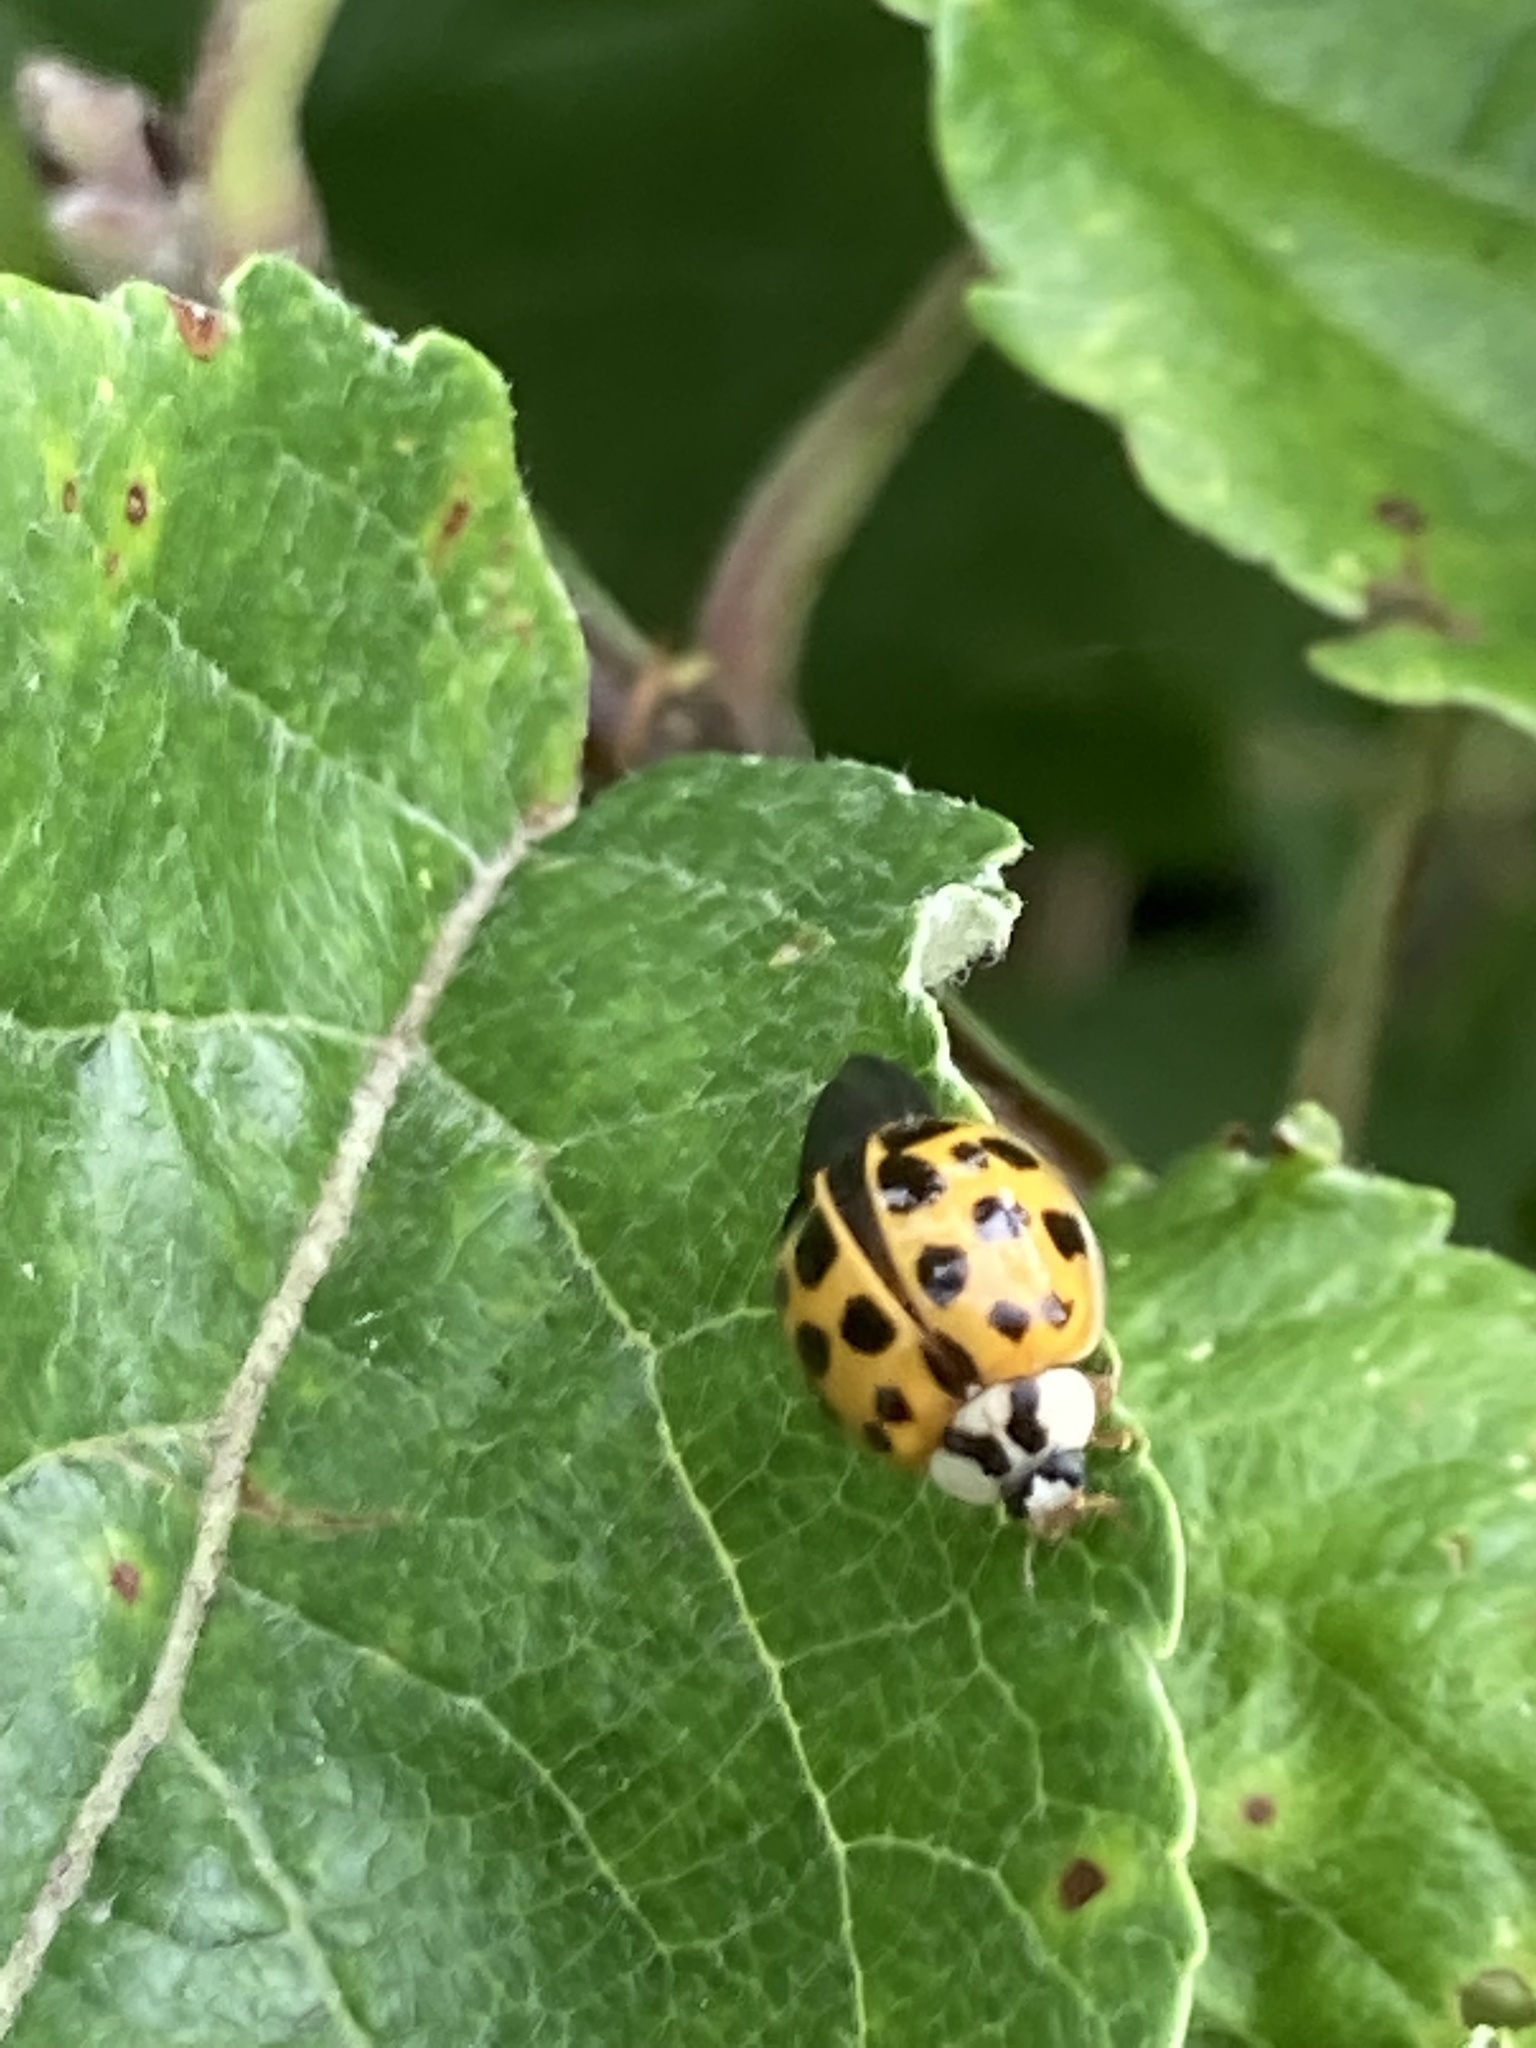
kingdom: Animalia
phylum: Arthropoda
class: Insecta
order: Coleoptera
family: Coccinellidae
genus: Harmonia
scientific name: Harmonia axyridis
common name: Harlequin ladybird
